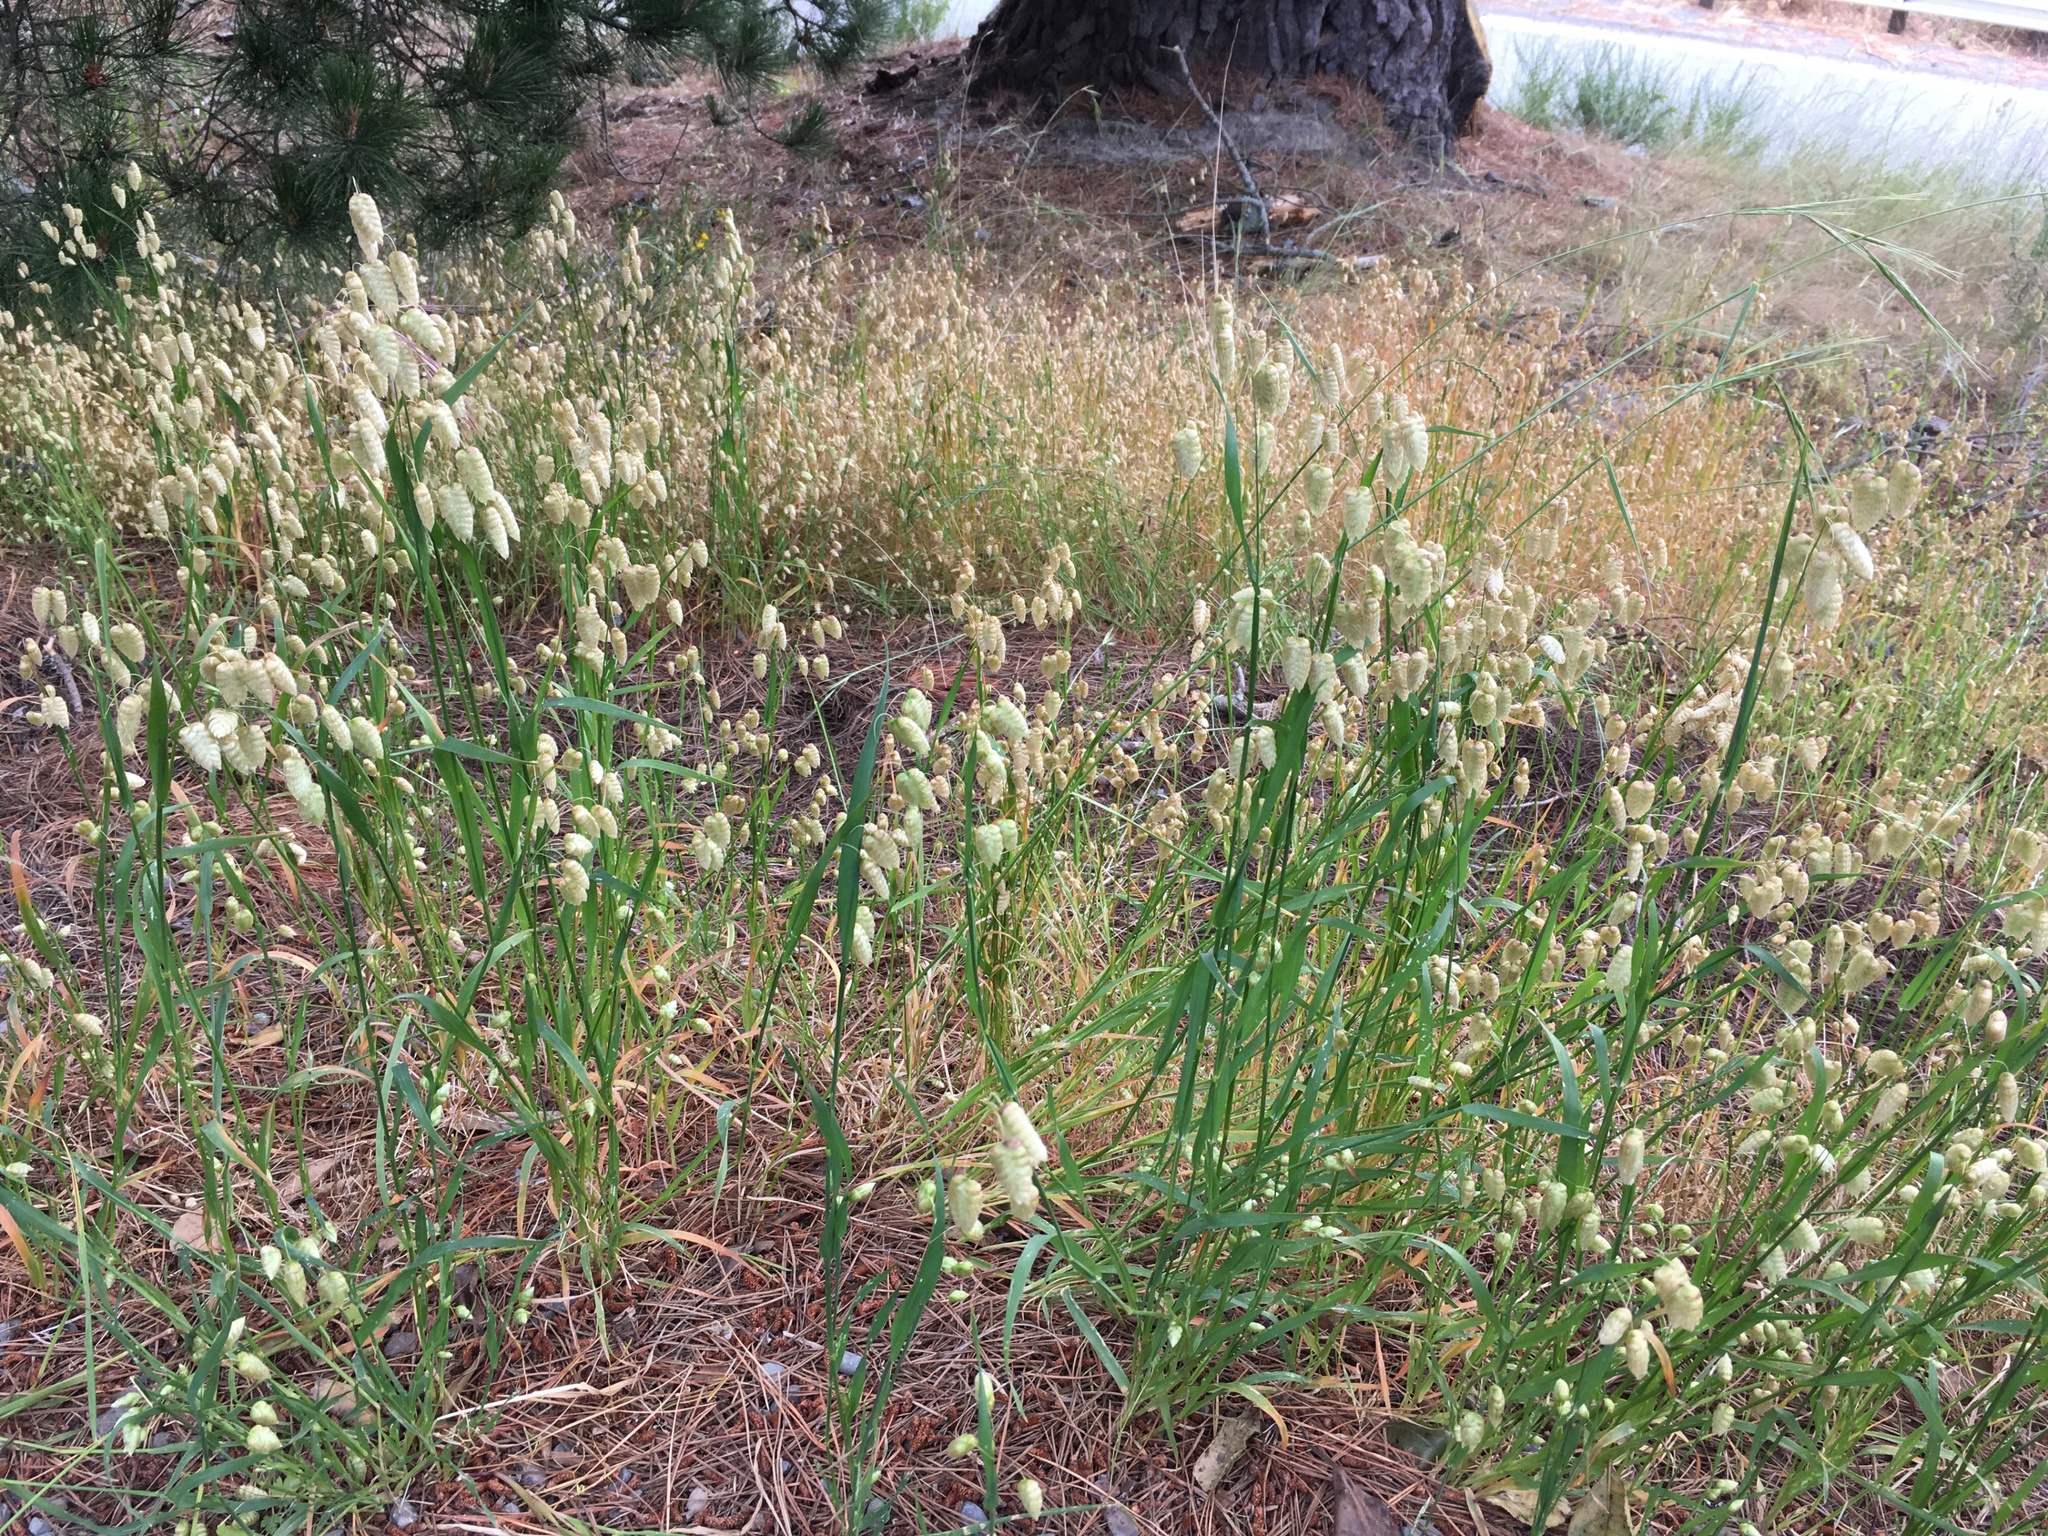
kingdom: Plantae
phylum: Tracheophyta
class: Liliopsida
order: Poales
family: Poaceae
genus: Briza
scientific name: Briza maxima
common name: Big quakinggrass
